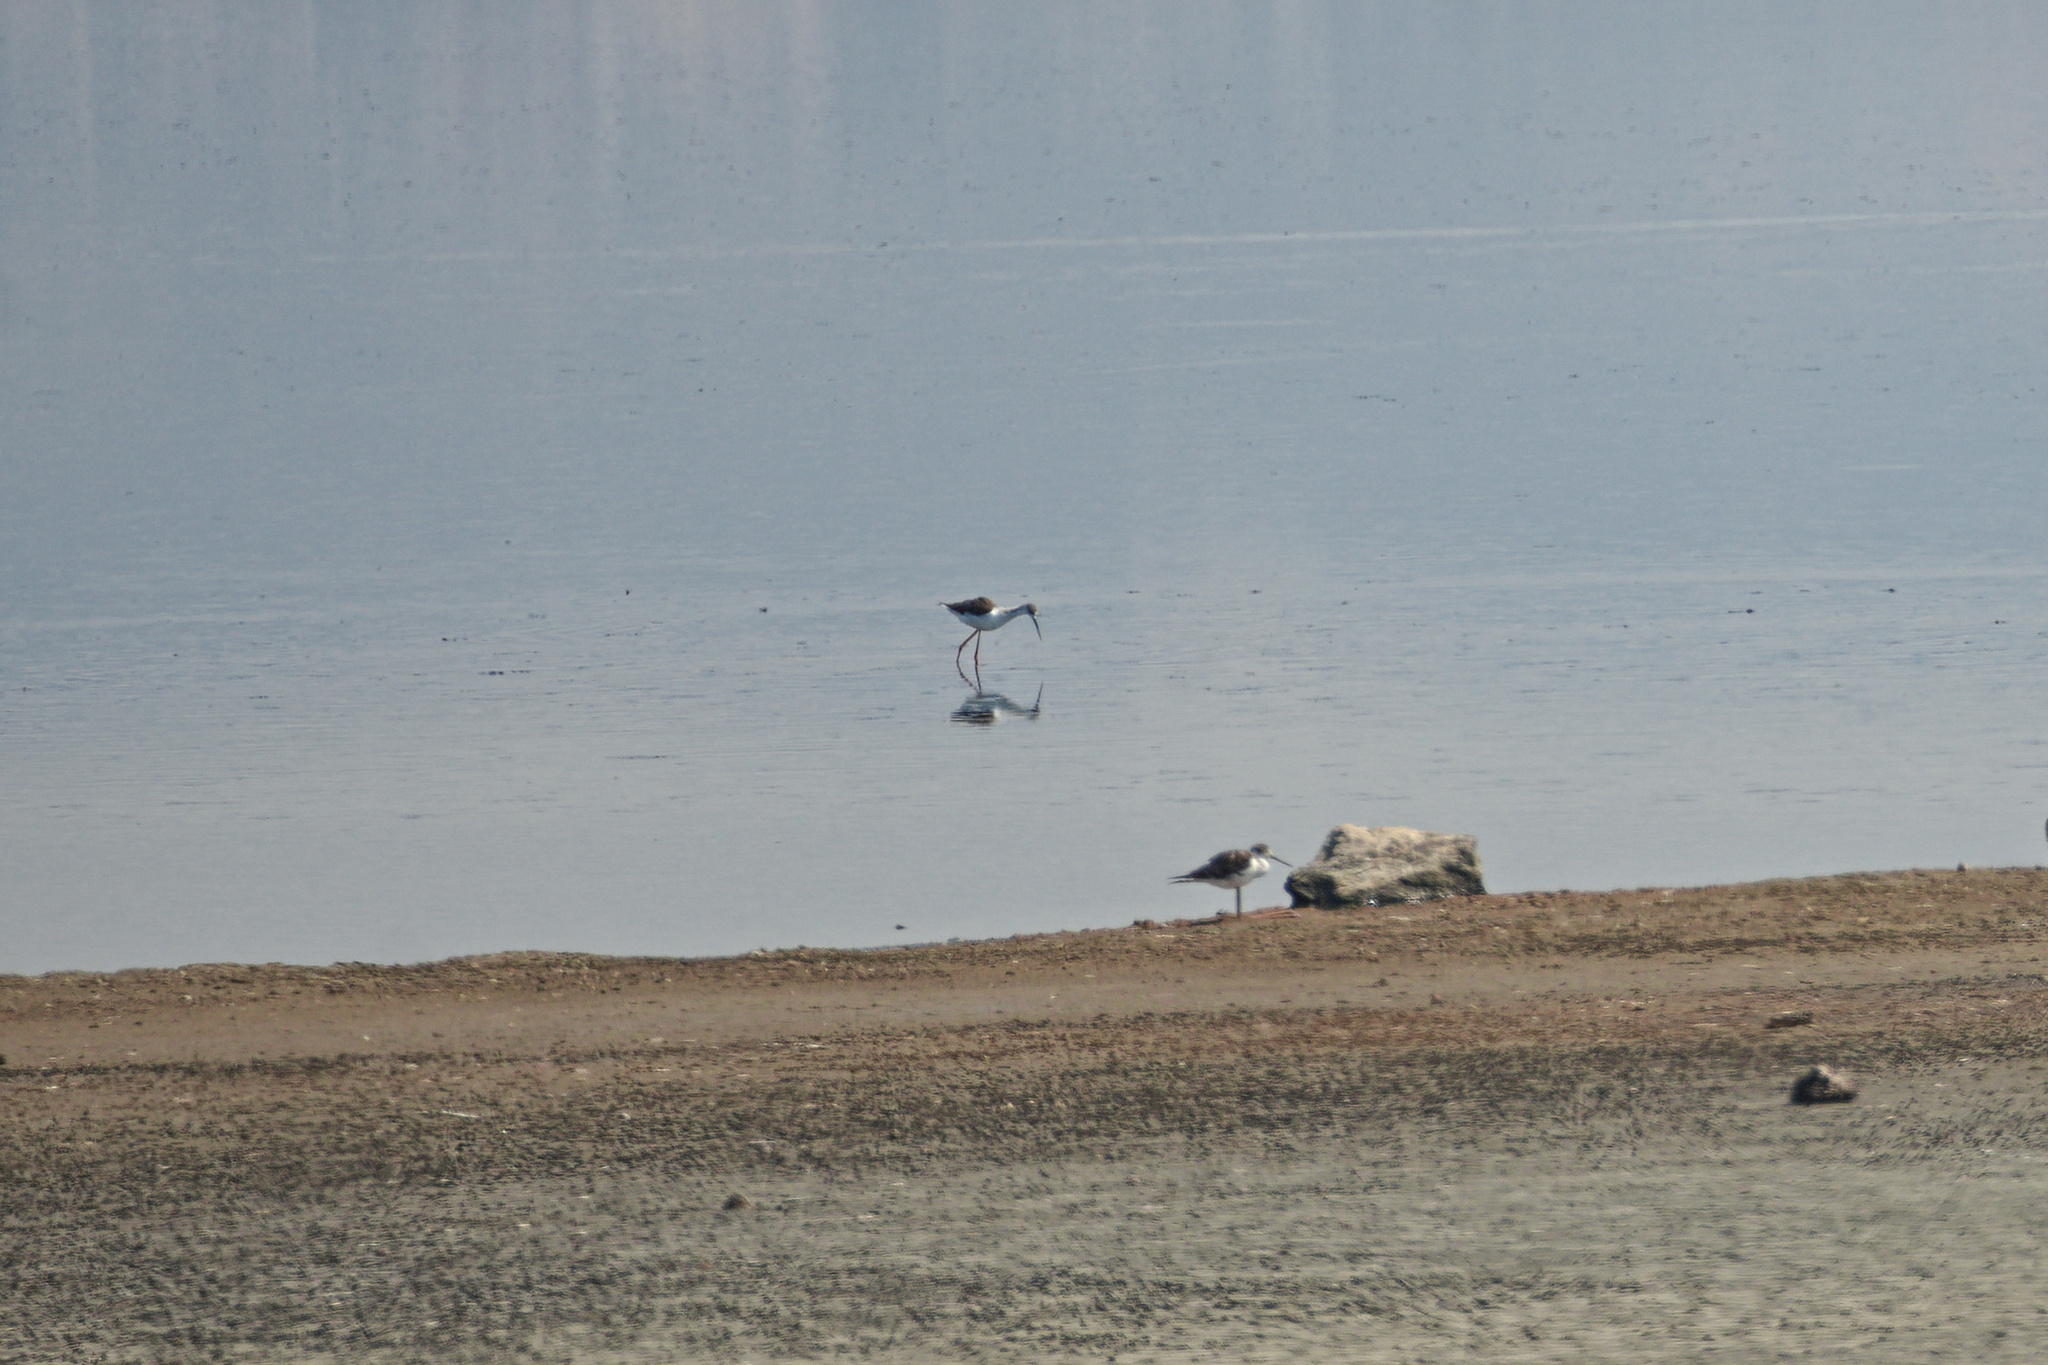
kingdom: Animalia
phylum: Chordata
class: Aves
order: Charadriiformes
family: Recurvirostridae
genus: Himantopus
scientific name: Himantopus himantopus
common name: Black-winged stilt
